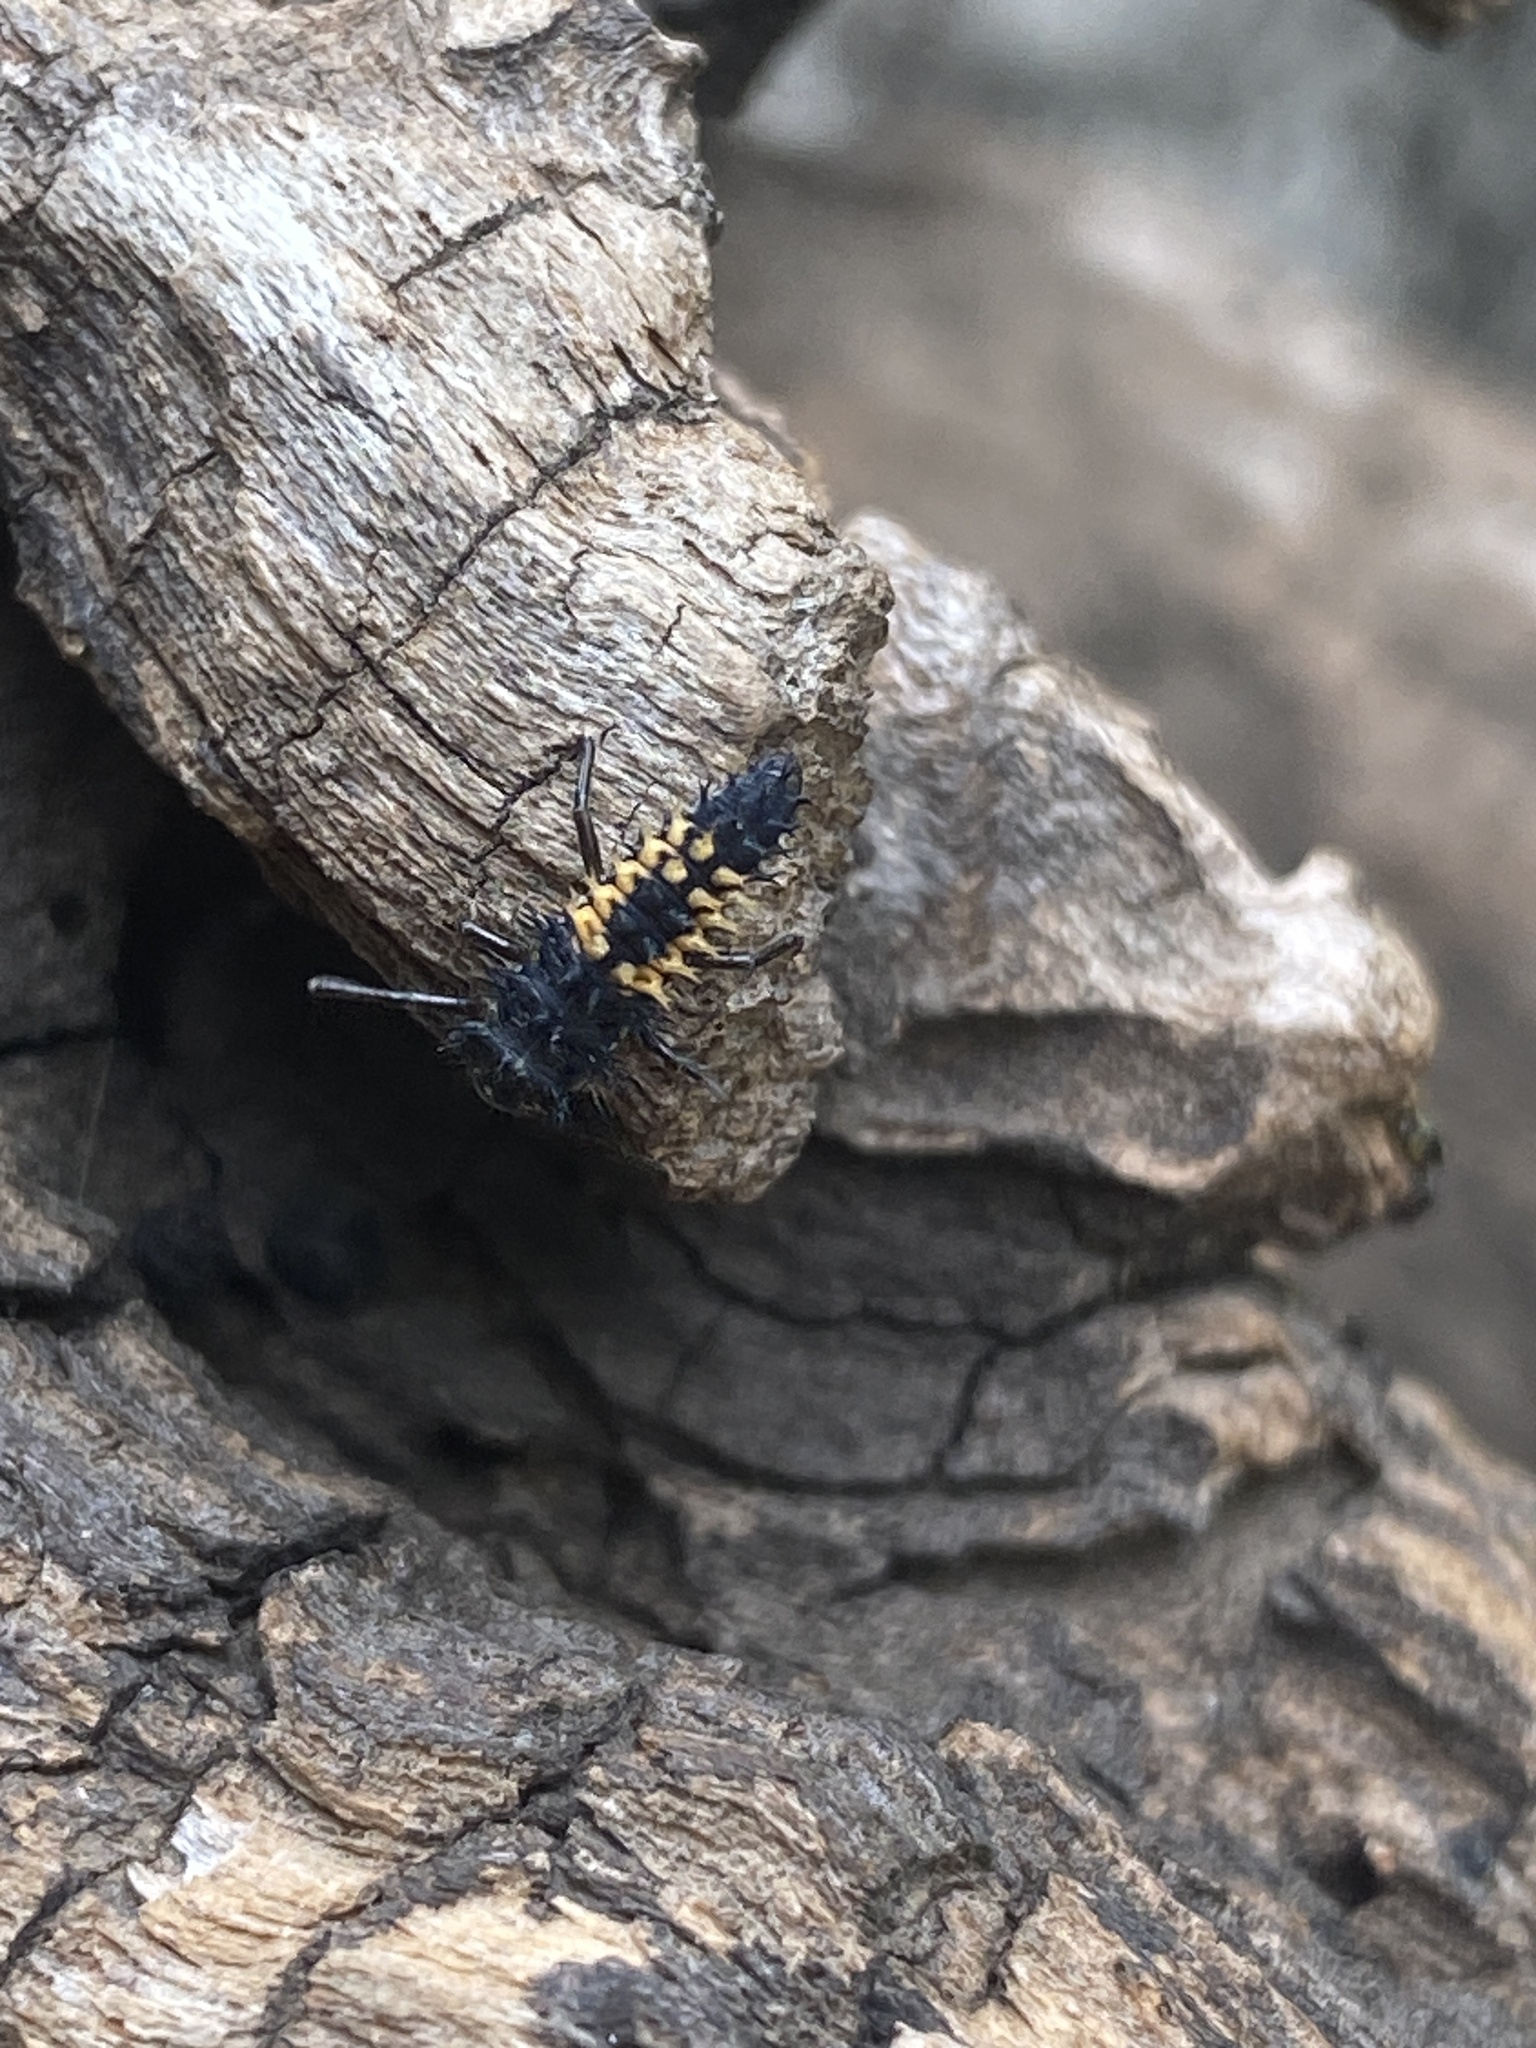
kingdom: Animalia
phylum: Arthropoda
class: Insecta
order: Coleoptera
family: Coccinellidae
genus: Harmonia
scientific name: Harmonia axyridis
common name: Harlequin ladybird
